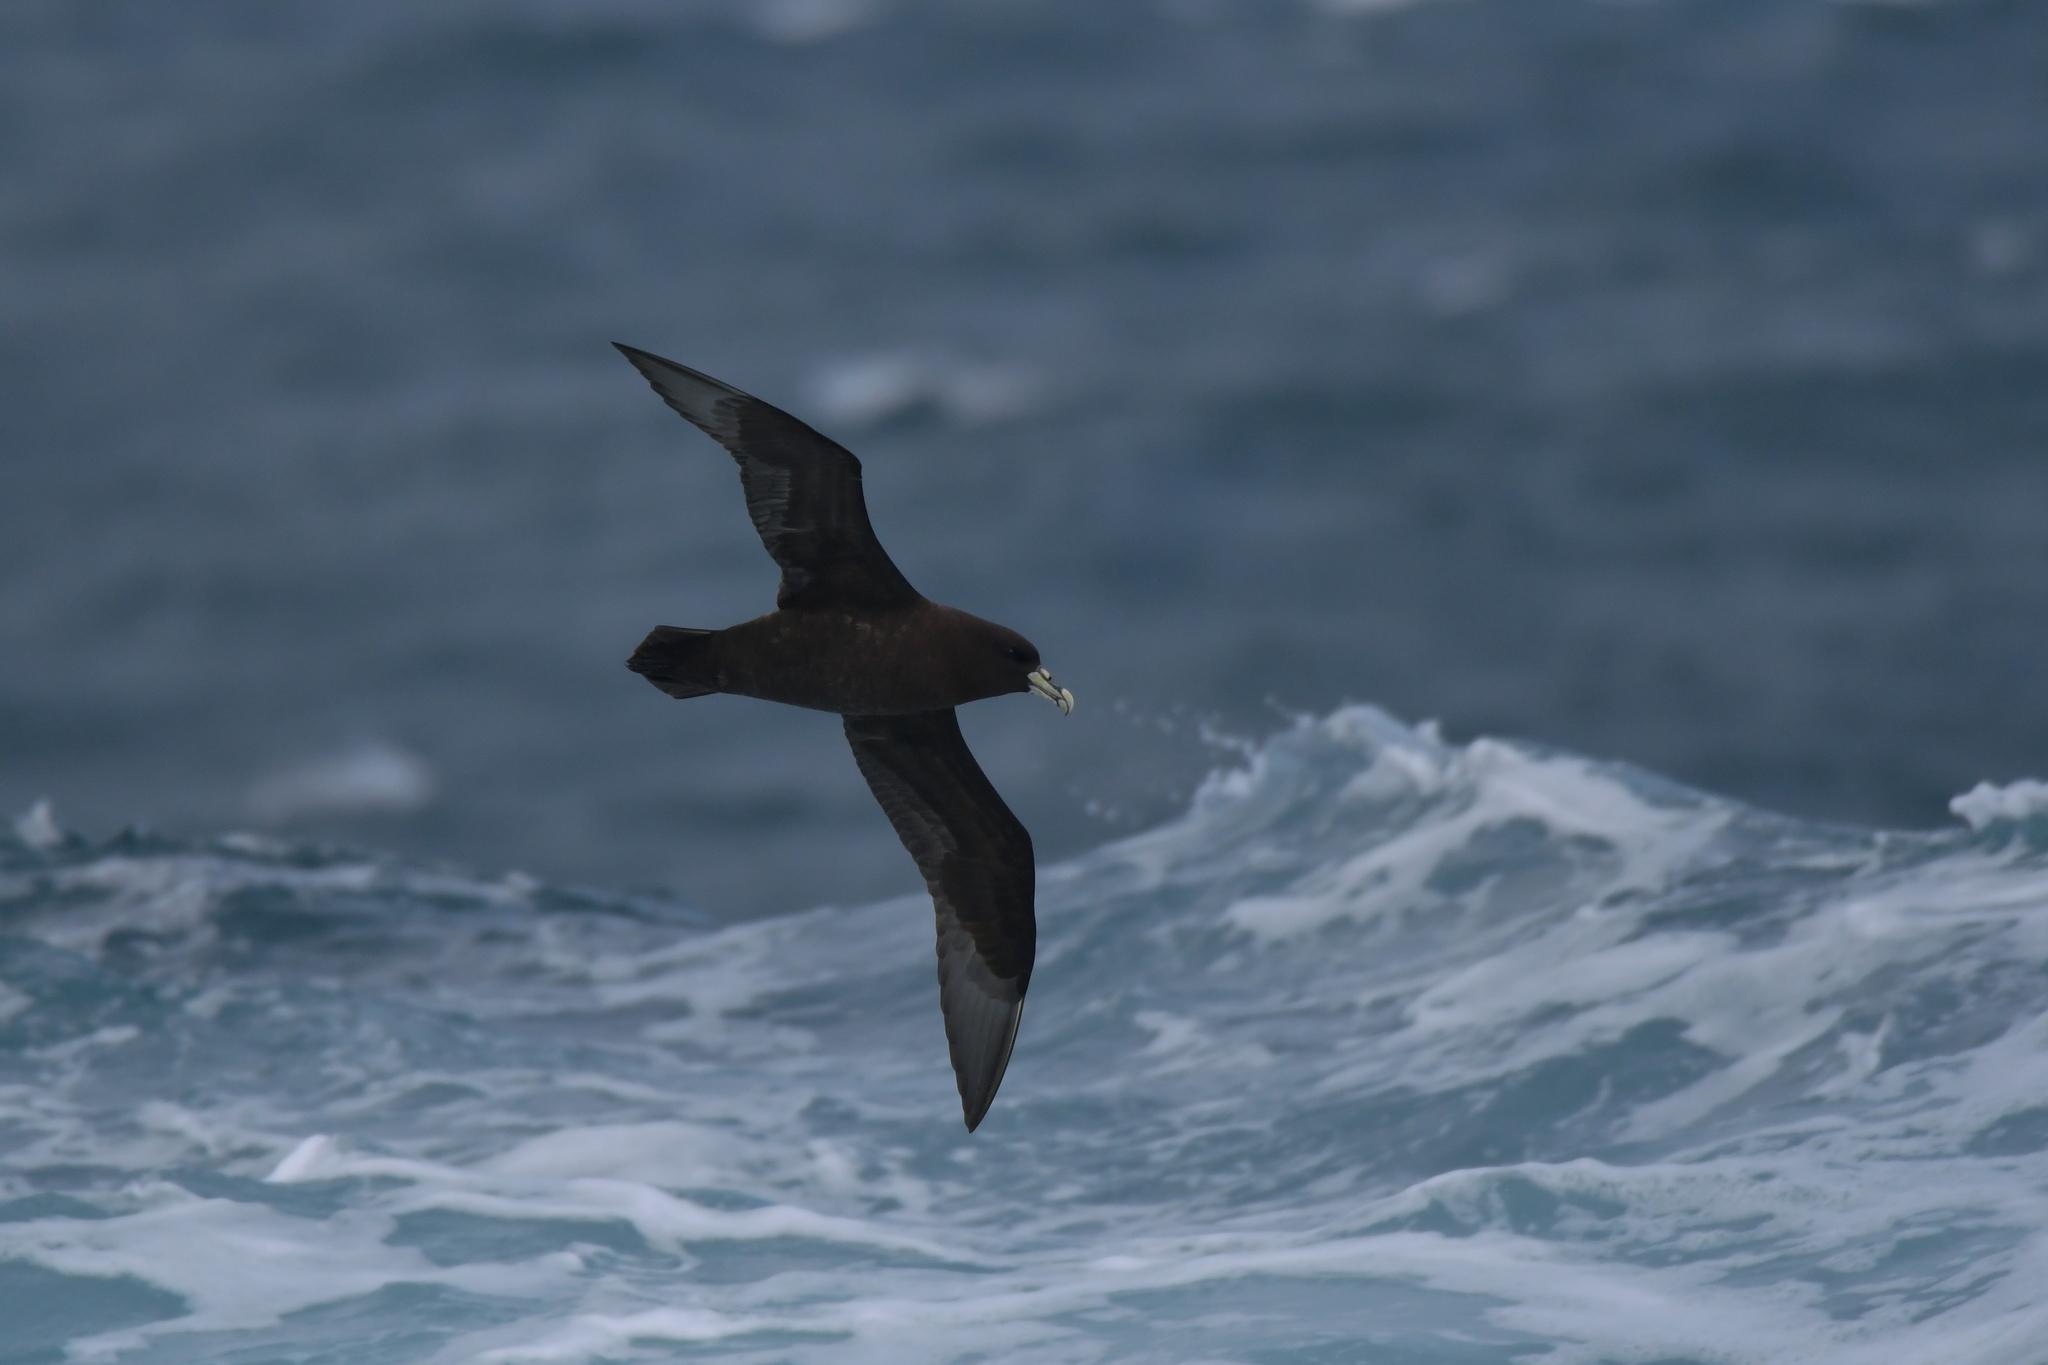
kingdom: Animalia
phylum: Chordata
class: Aves
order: Procellariiformes
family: Procellariidae
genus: Procellaria
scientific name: Procellaria aequinoctialis
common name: White-chinned petrel
